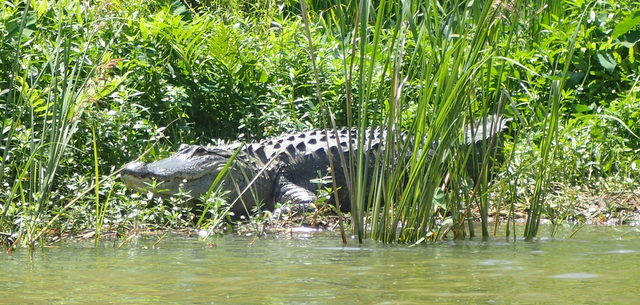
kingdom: Animalia
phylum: Chordata
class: Crocodylia
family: Alligatoridae
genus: Alligator
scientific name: Alligator mississippiensis
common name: American alligator
